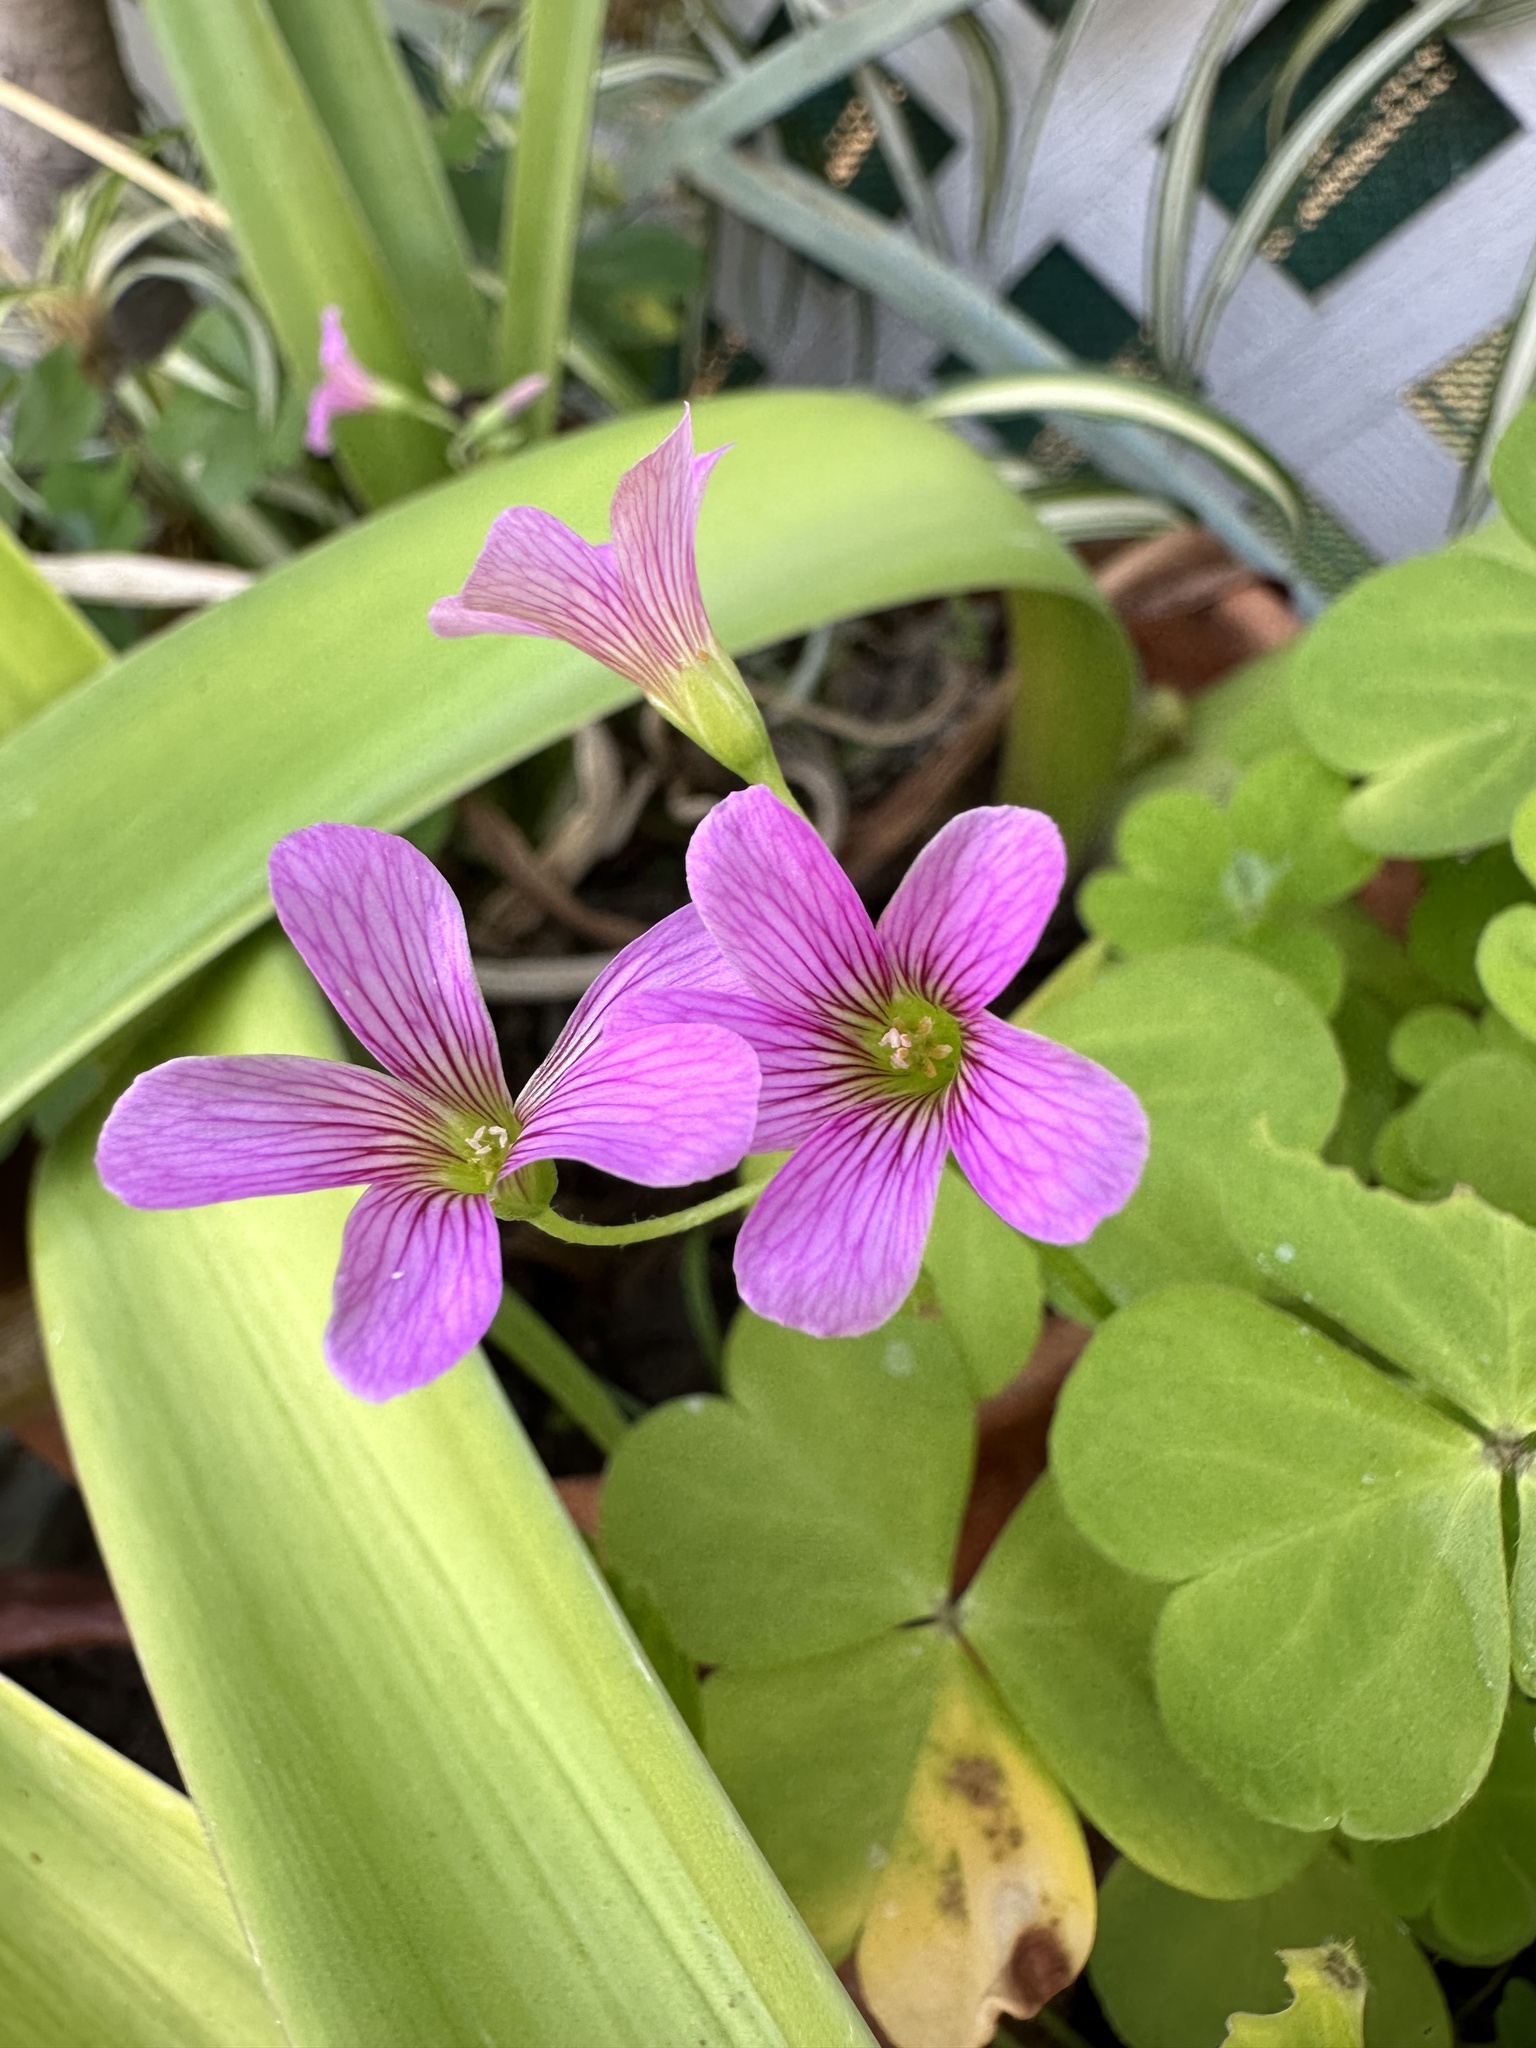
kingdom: Plantae
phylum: Tracheophyta
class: Magnoliopsida
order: Oxalidales
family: Oxalidaceae
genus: Oxalis
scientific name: Oxalis debilis
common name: Large-flowered pink-sorrel
